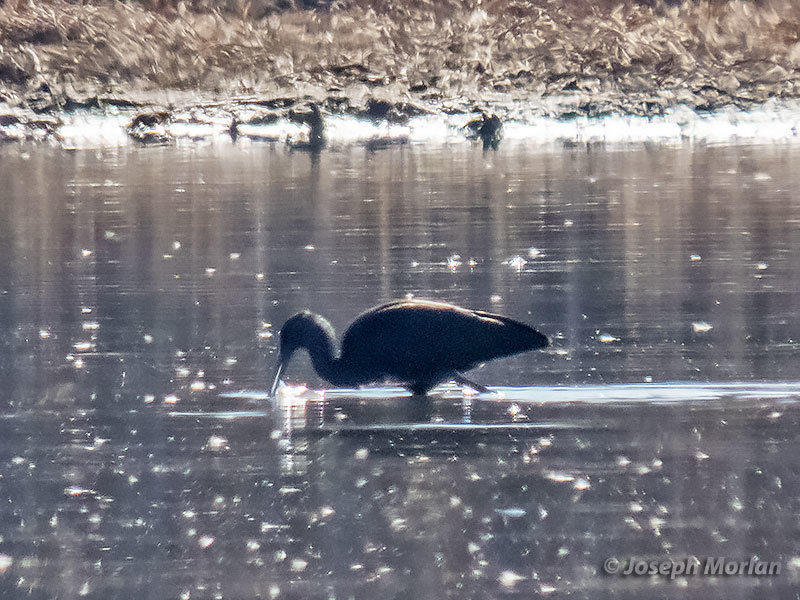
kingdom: Animalia
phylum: Chordata
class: Aves
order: Pelecaniformes
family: Threskiornithidae
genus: Plegadis
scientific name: Plegadis chihi
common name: White-faced ibis
